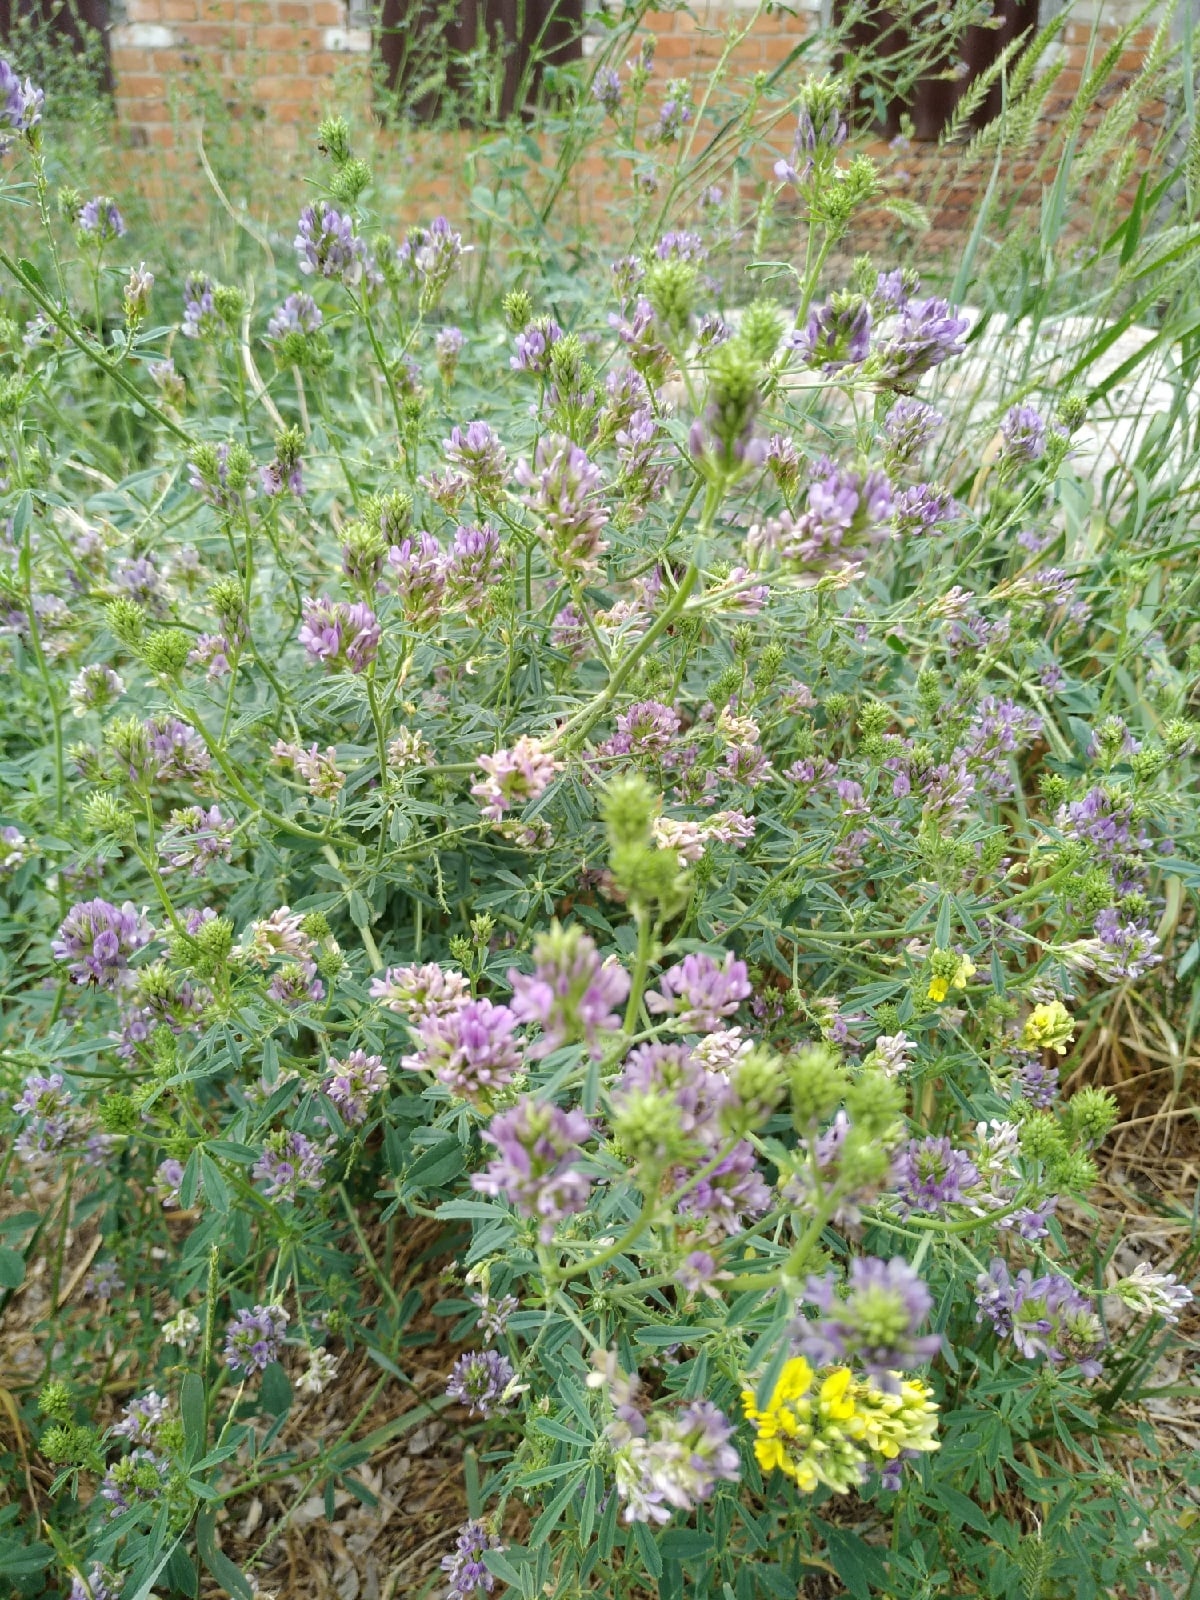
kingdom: Plantae
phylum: Tracheophyta
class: Magnoliopsida
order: Fabales
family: Fabaceae
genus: Medicago
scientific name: Medicago sativa
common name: Alfalfa
